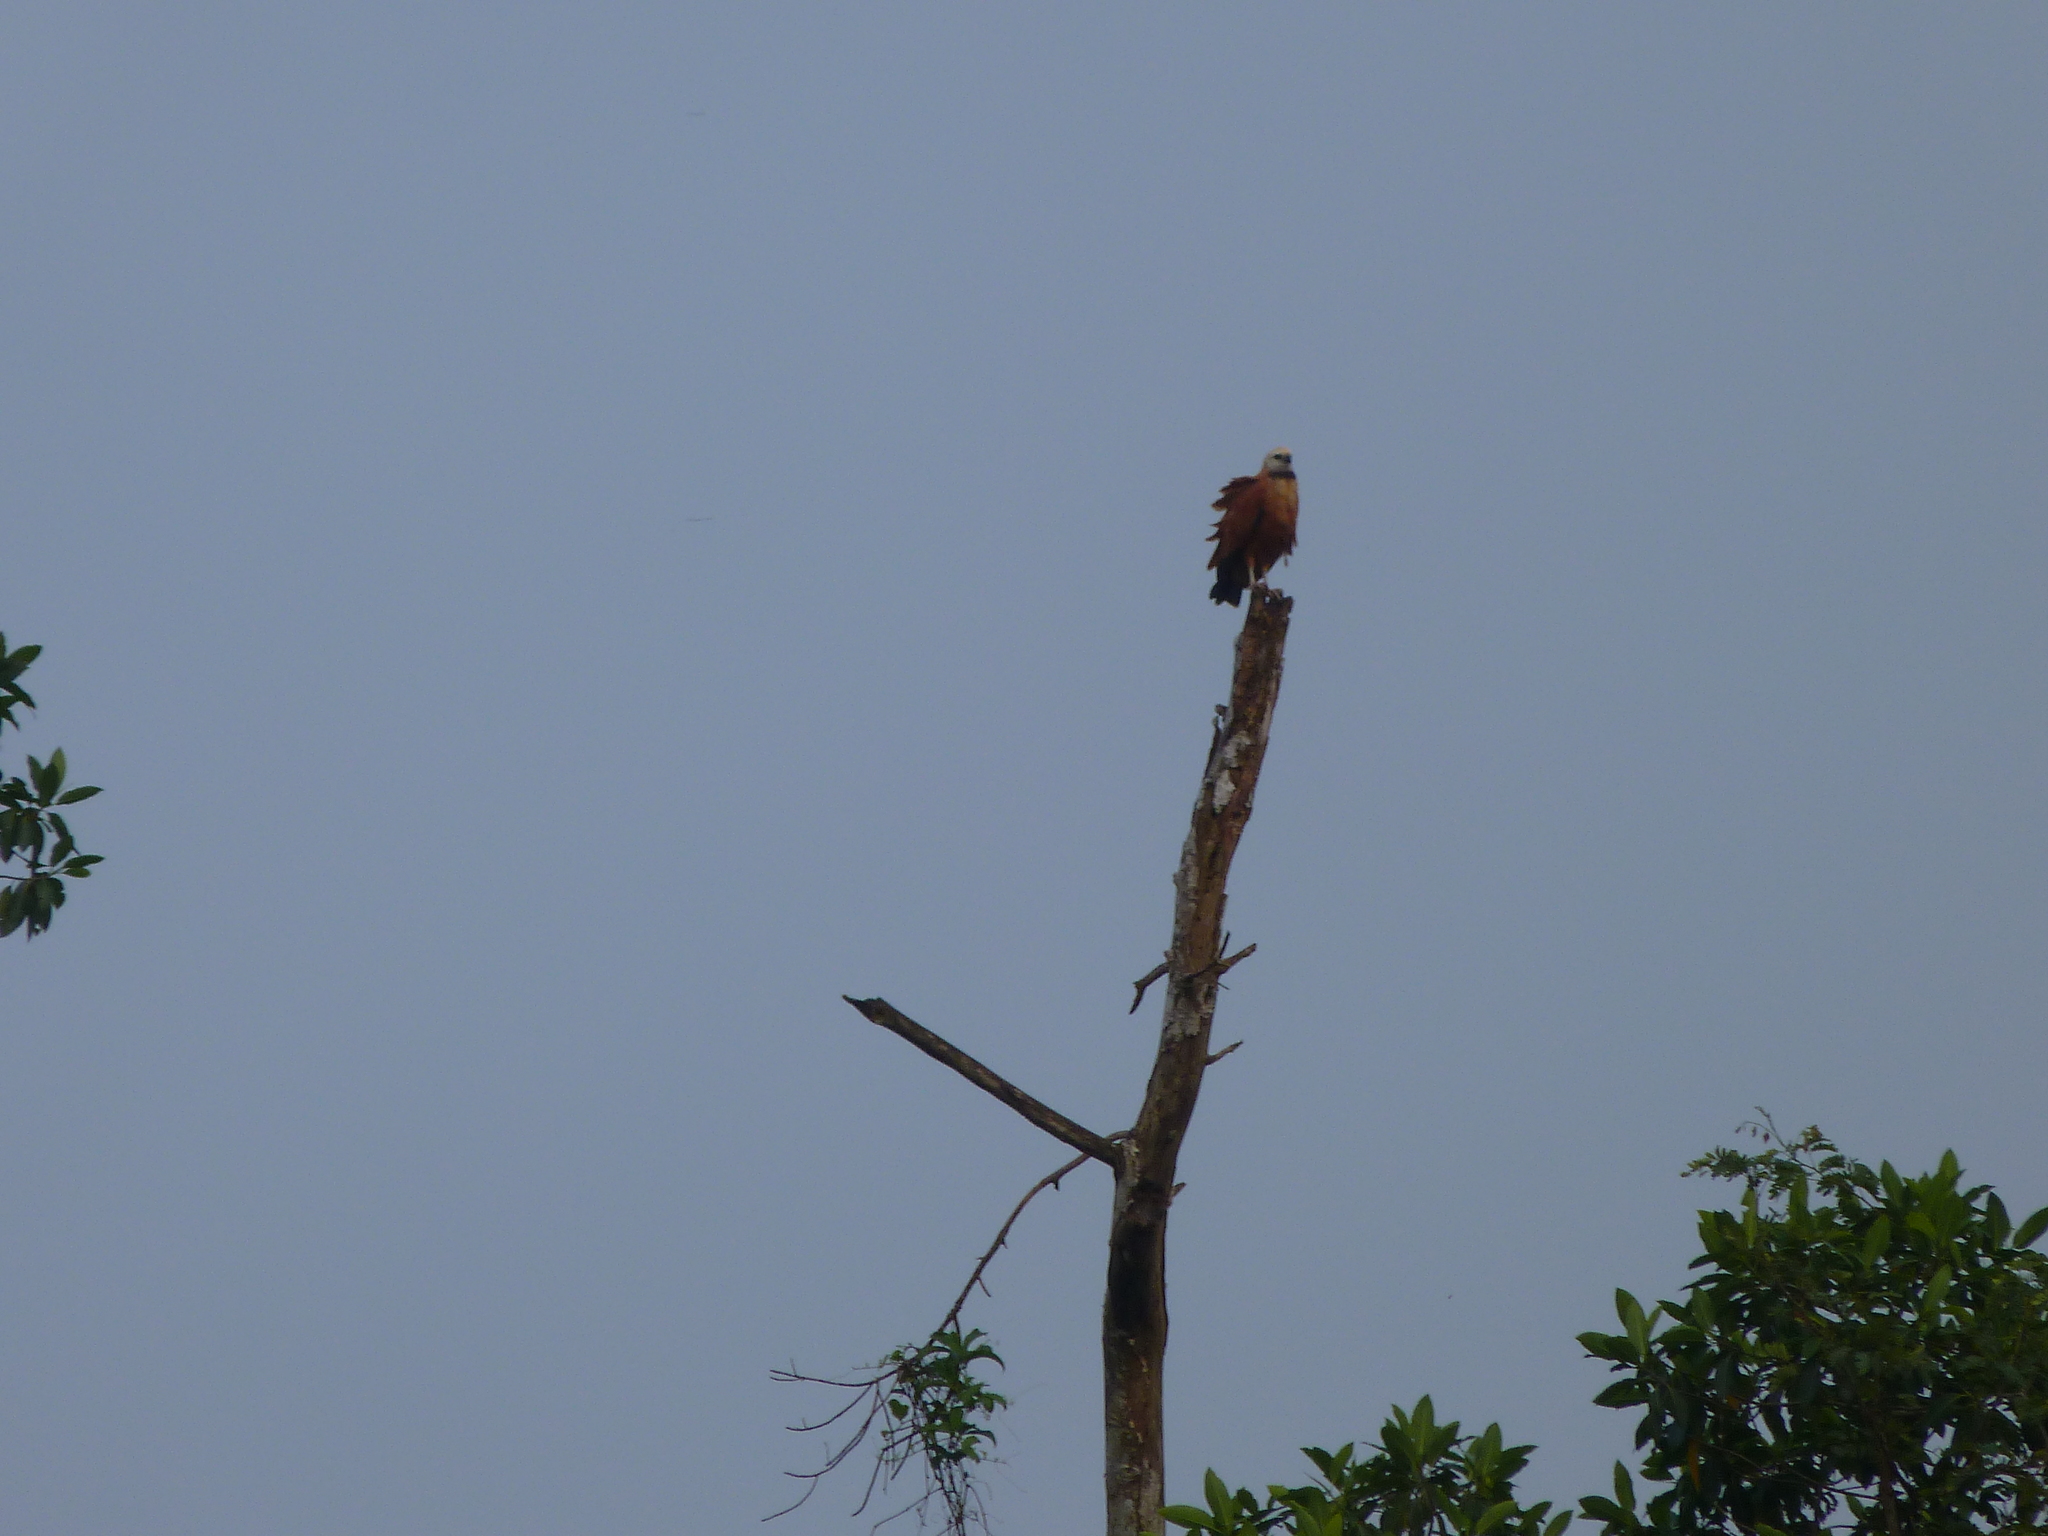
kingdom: Animalia
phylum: Chordata
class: Aves
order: Accipitriformes
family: Accipitridae
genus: Busarellus
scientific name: Busarellus nigricollis
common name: Black-collared hawk
